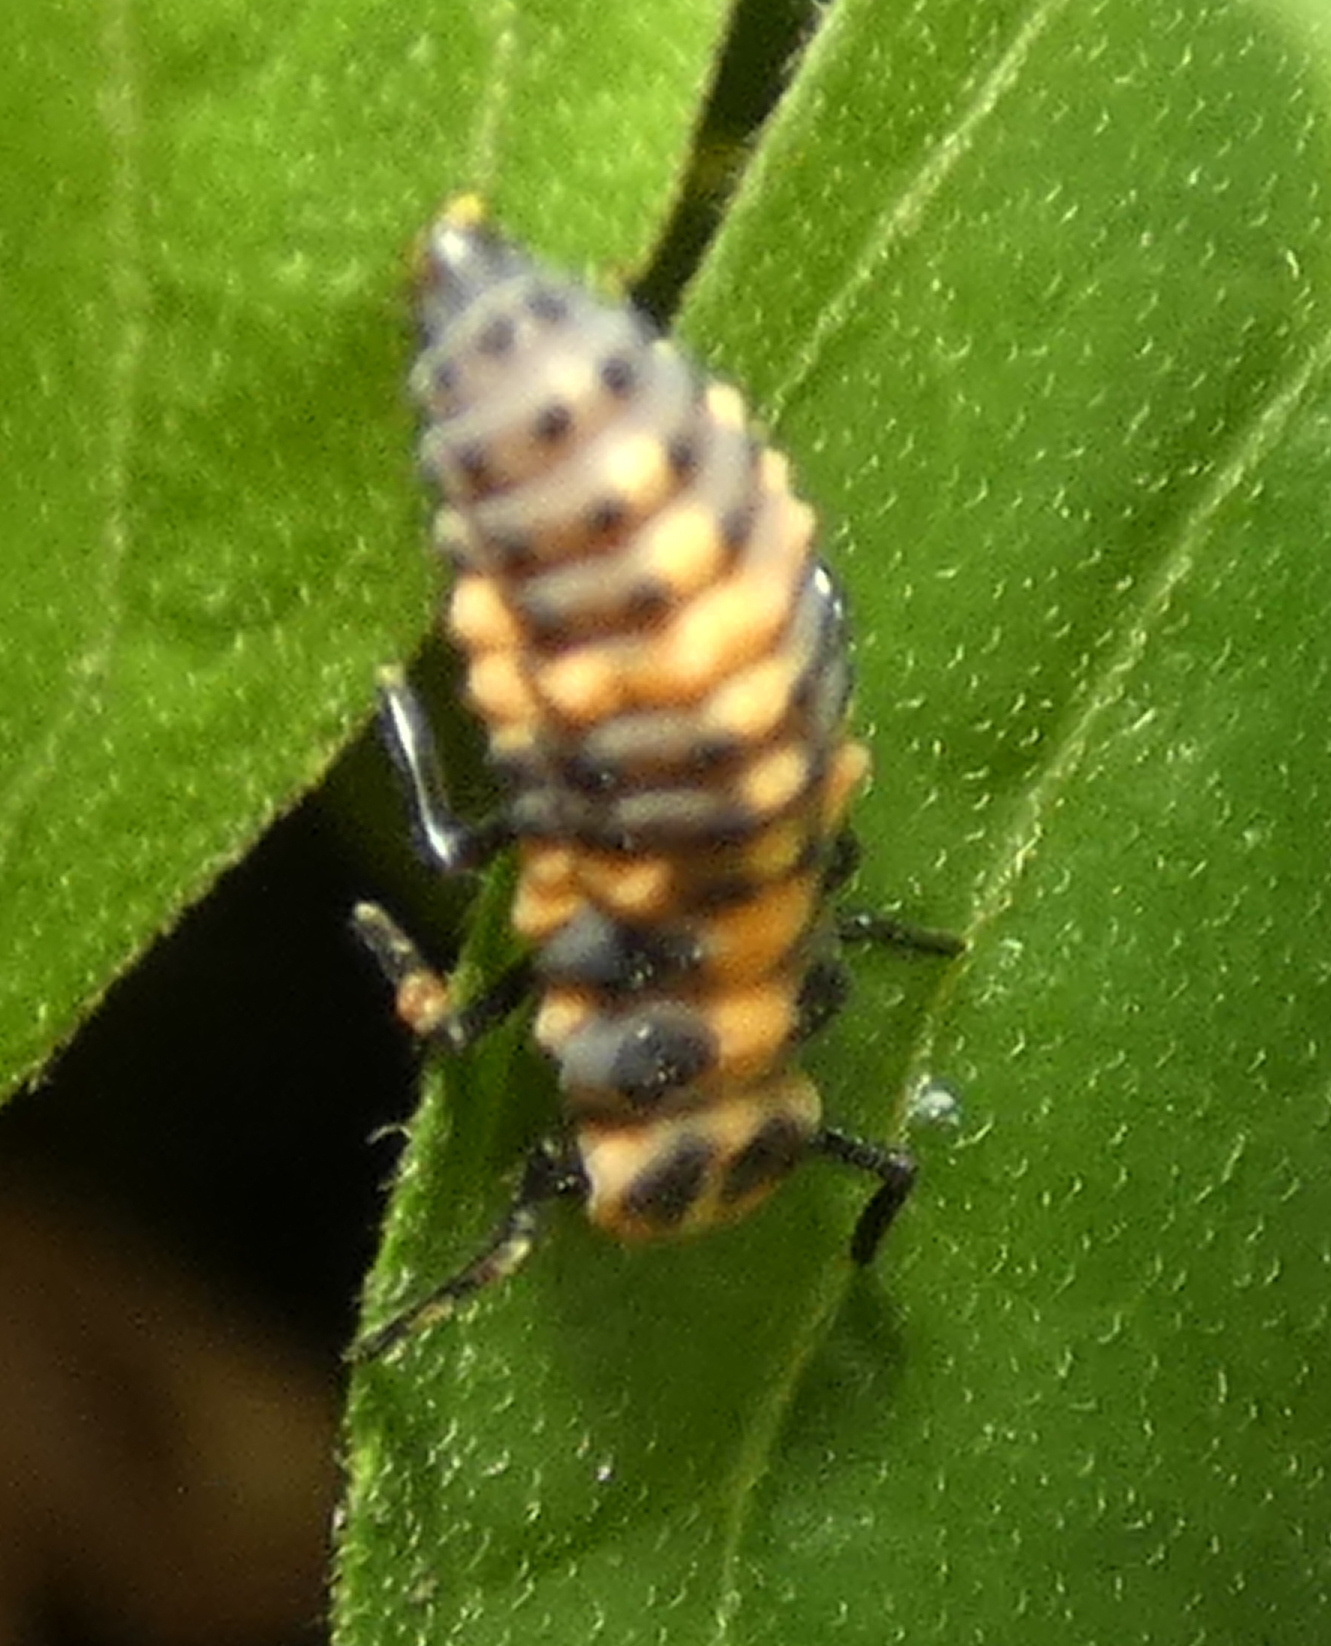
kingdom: Animalia
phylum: Arthropoda
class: Insecta
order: Coleoptera
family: Coccinellidae
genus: Cycloneda
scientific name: Cycloneda sanguinea
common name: Ladybird beetle
